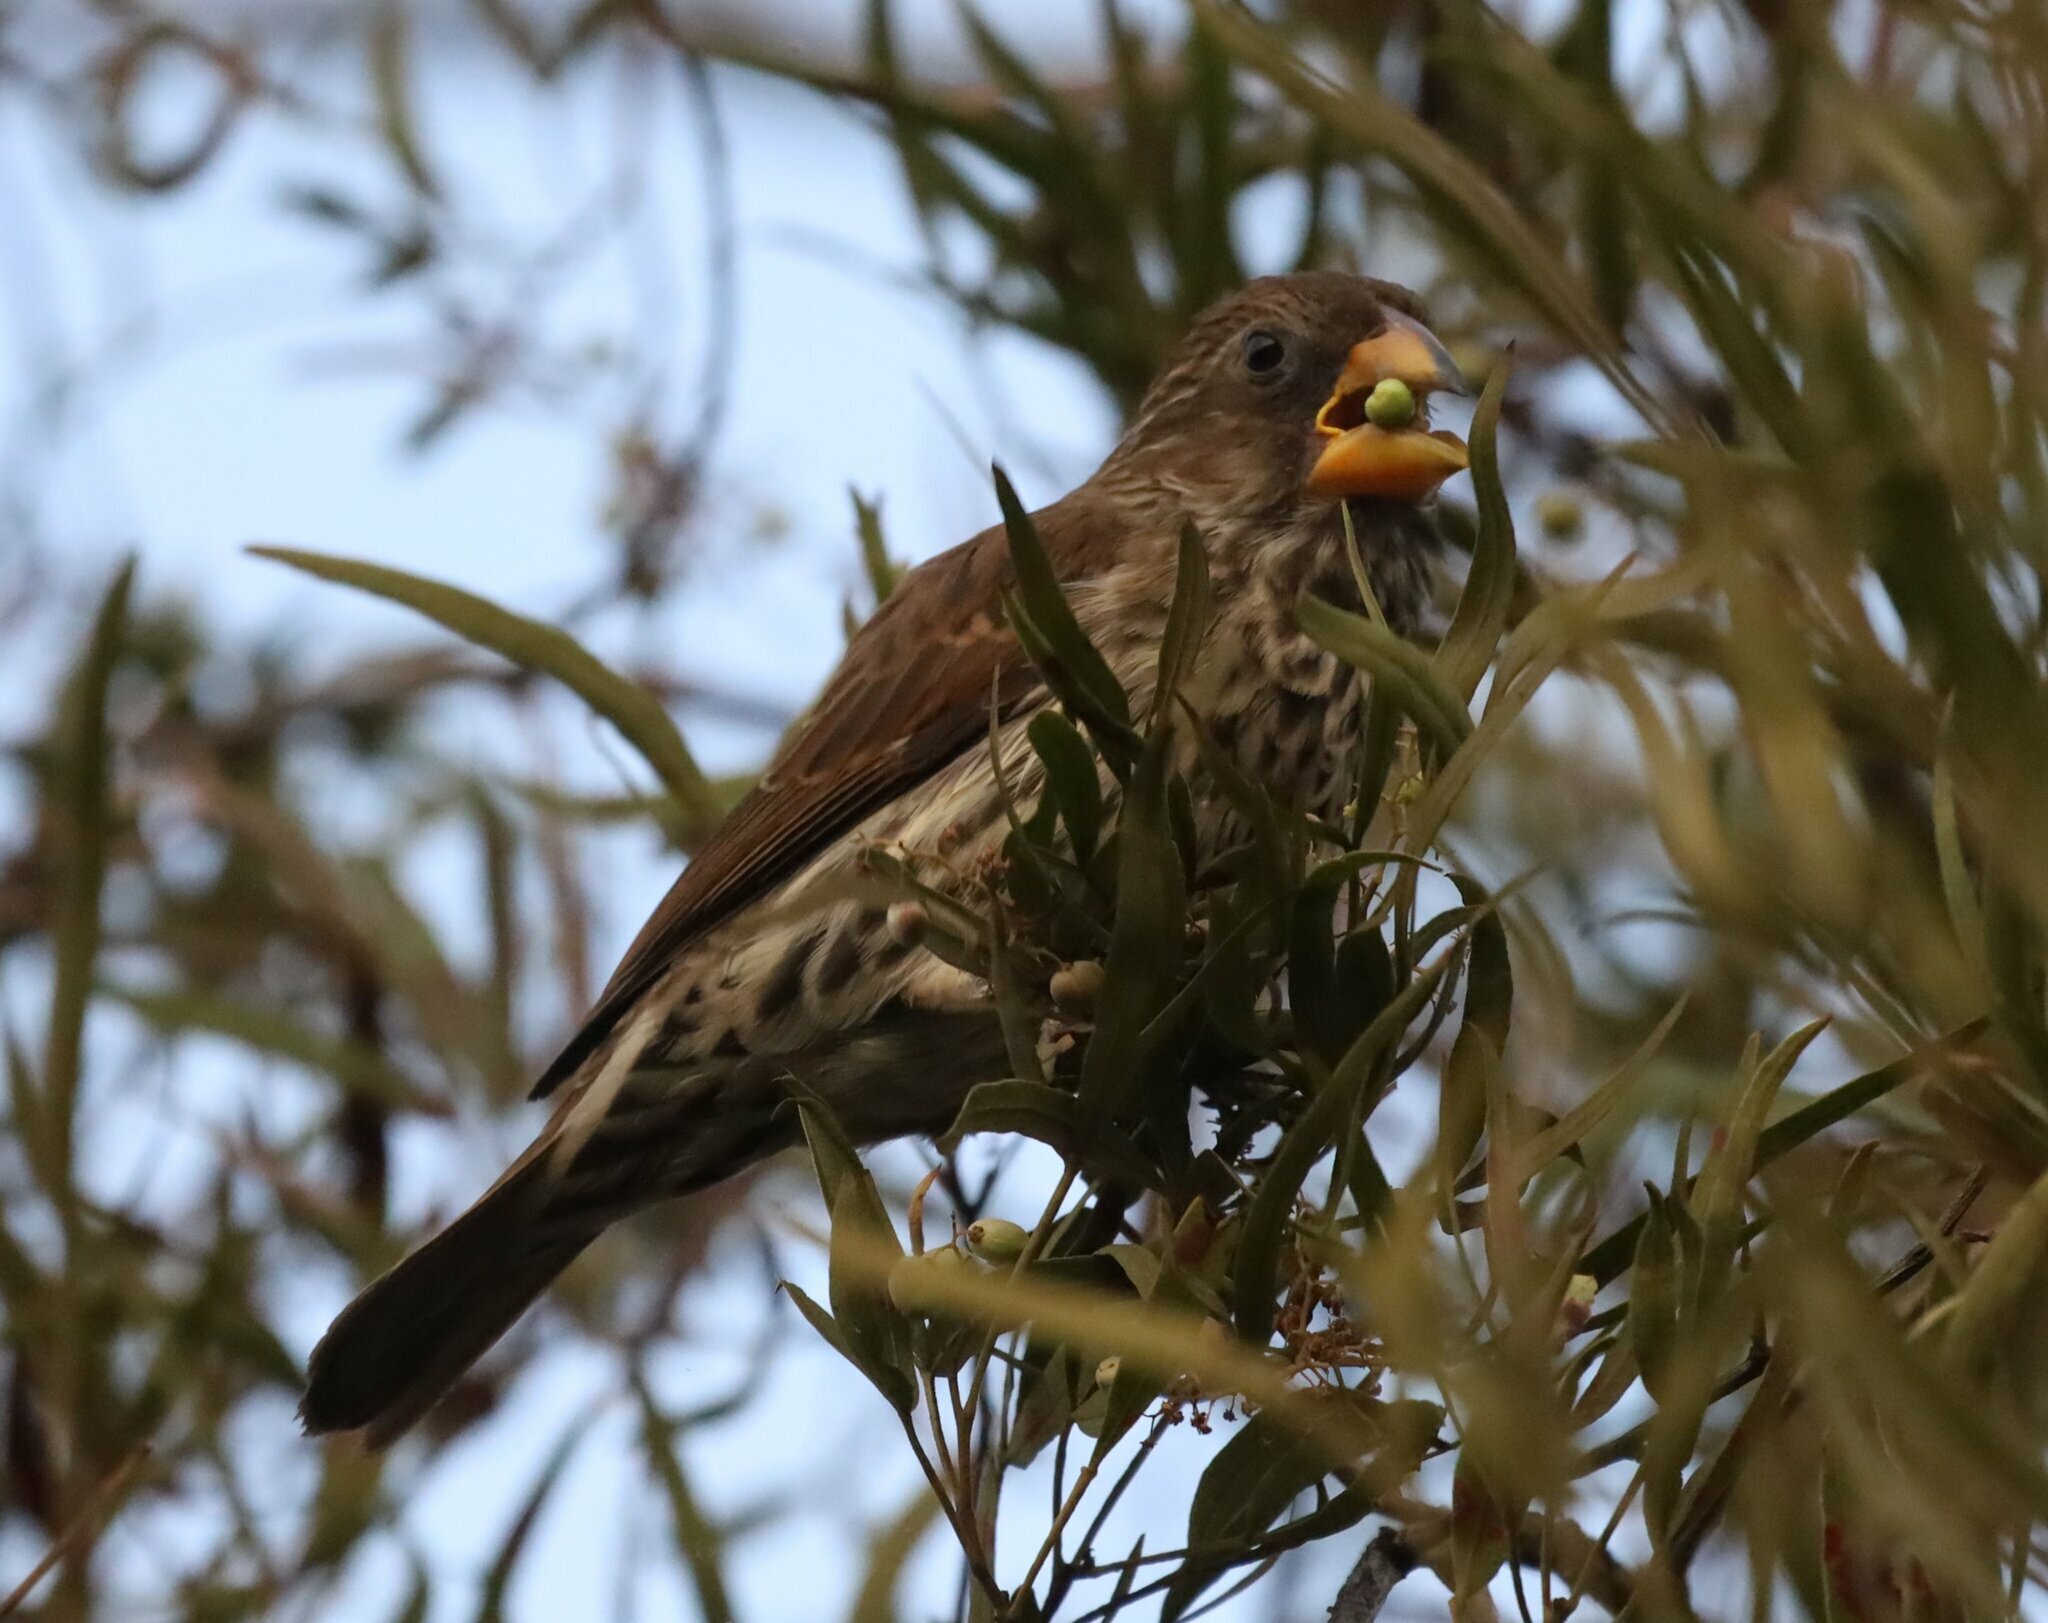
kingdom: Animalia
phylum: Chordata
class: Aves
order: Passeriformes
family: Ploceidae
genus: Amblyospiza
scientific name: Amblyospiza albifrons
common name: Thick-billed weaver
